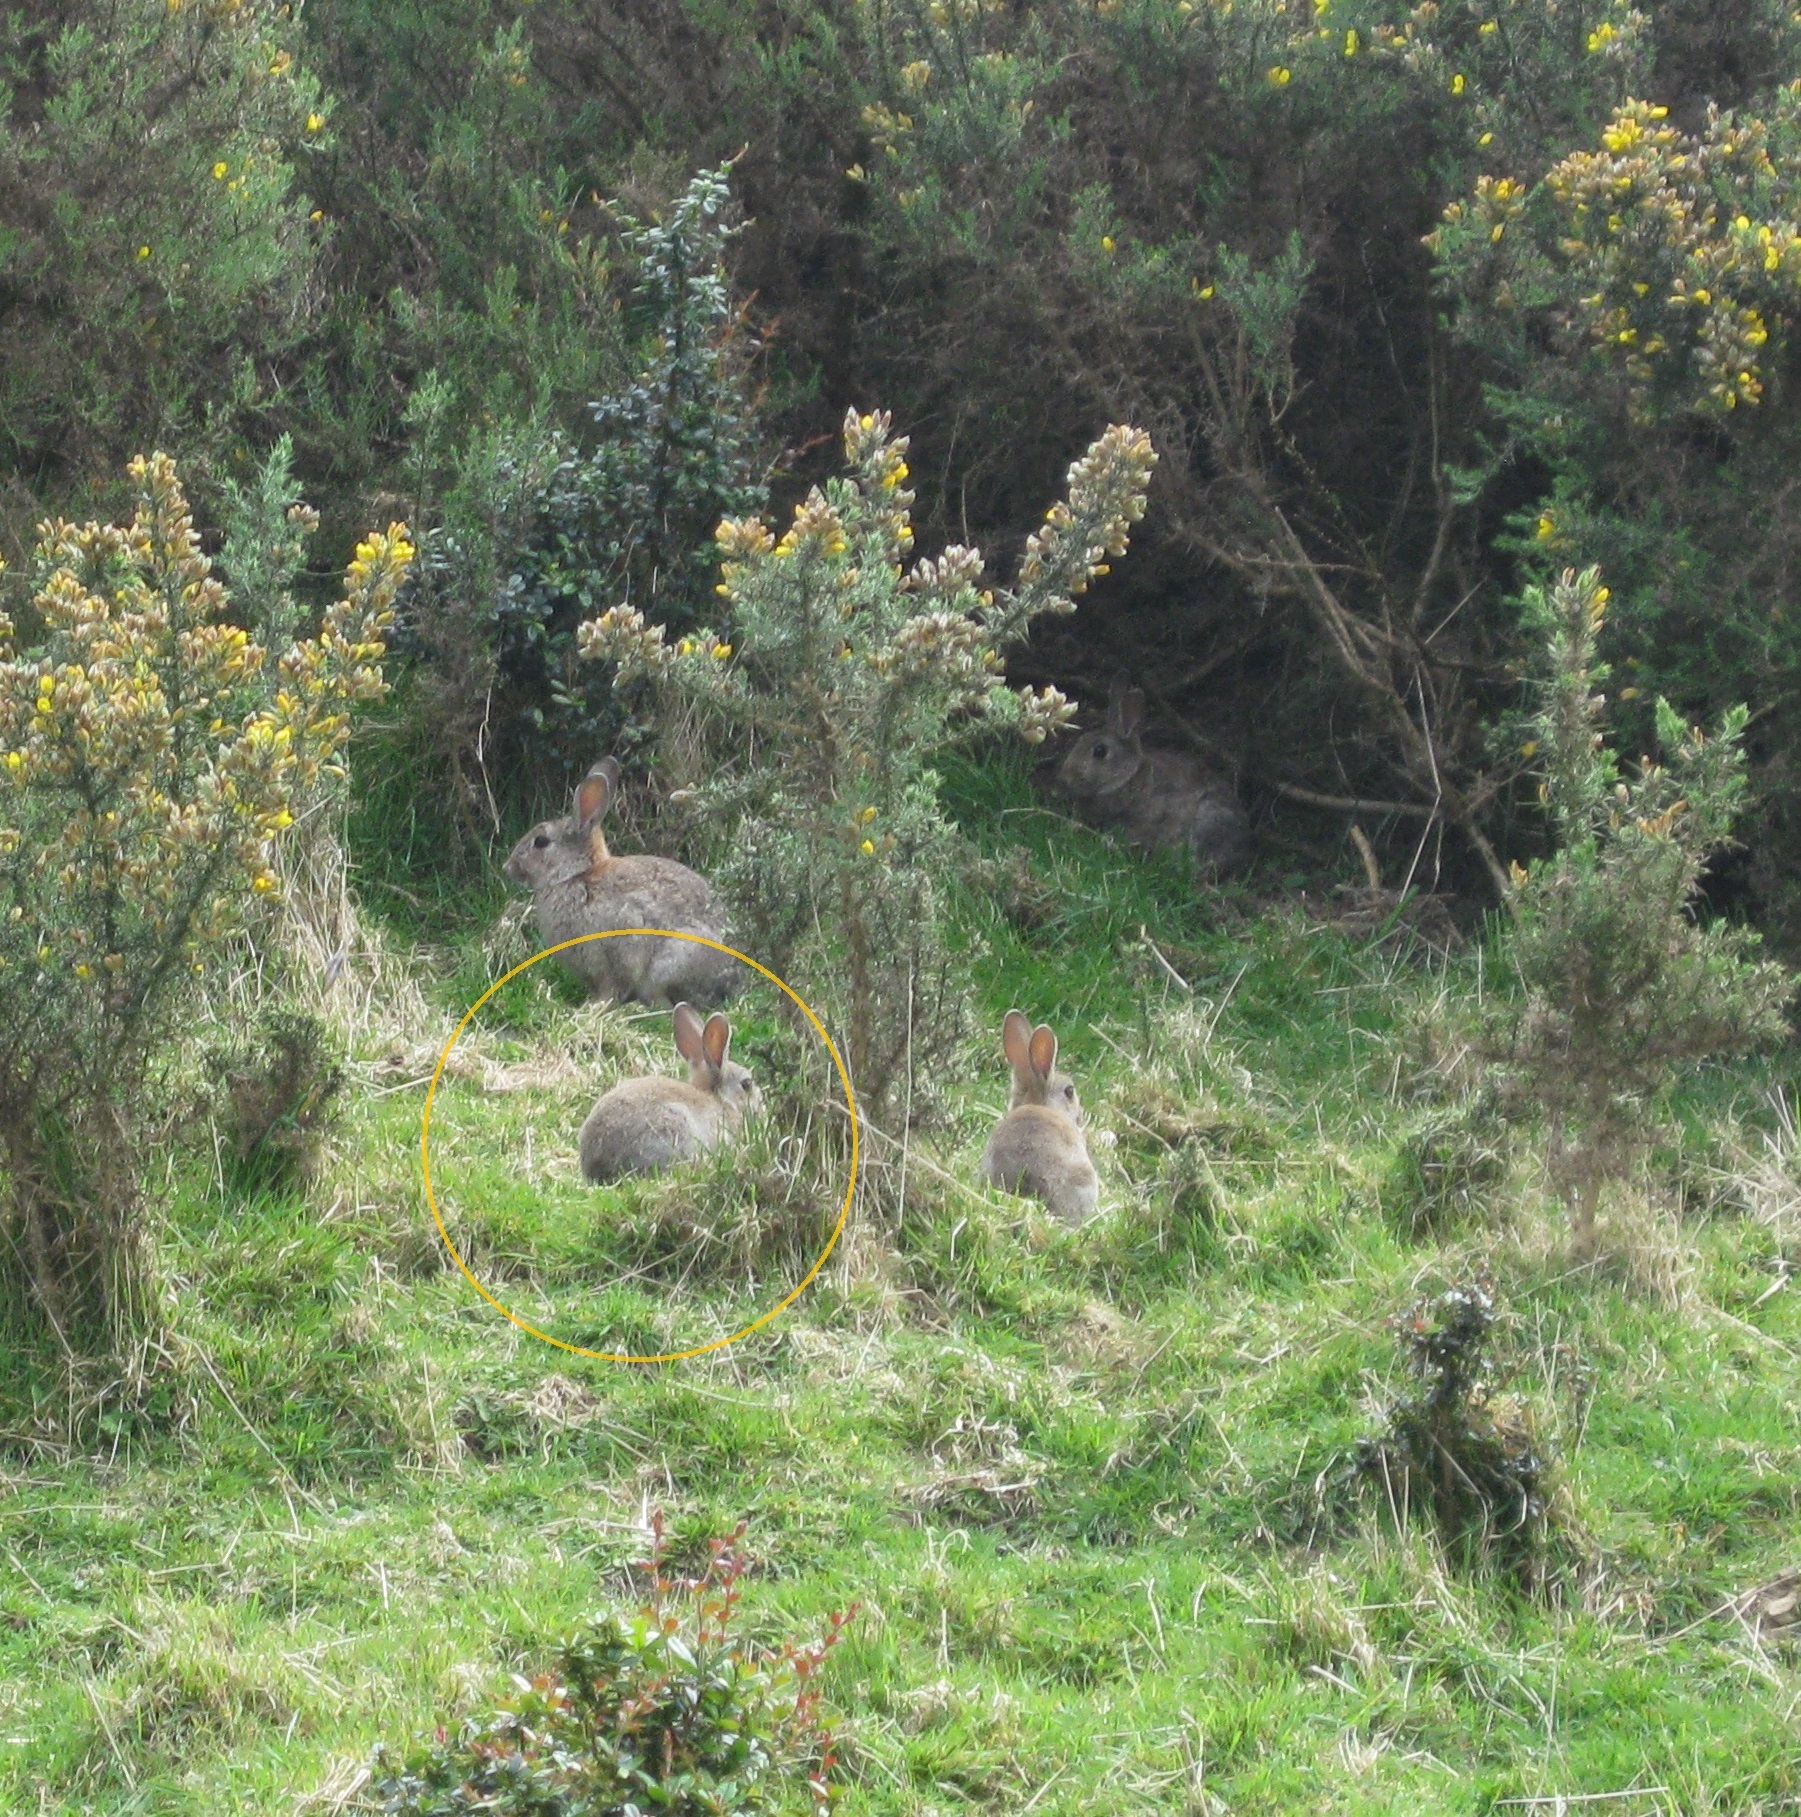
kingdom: Animalia
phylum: Chordata
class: Mammalia
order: Lagomorpha
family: Leporidae
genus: Oryctolagus
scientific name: Oryctolagus cuniculus
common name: European rabbit
